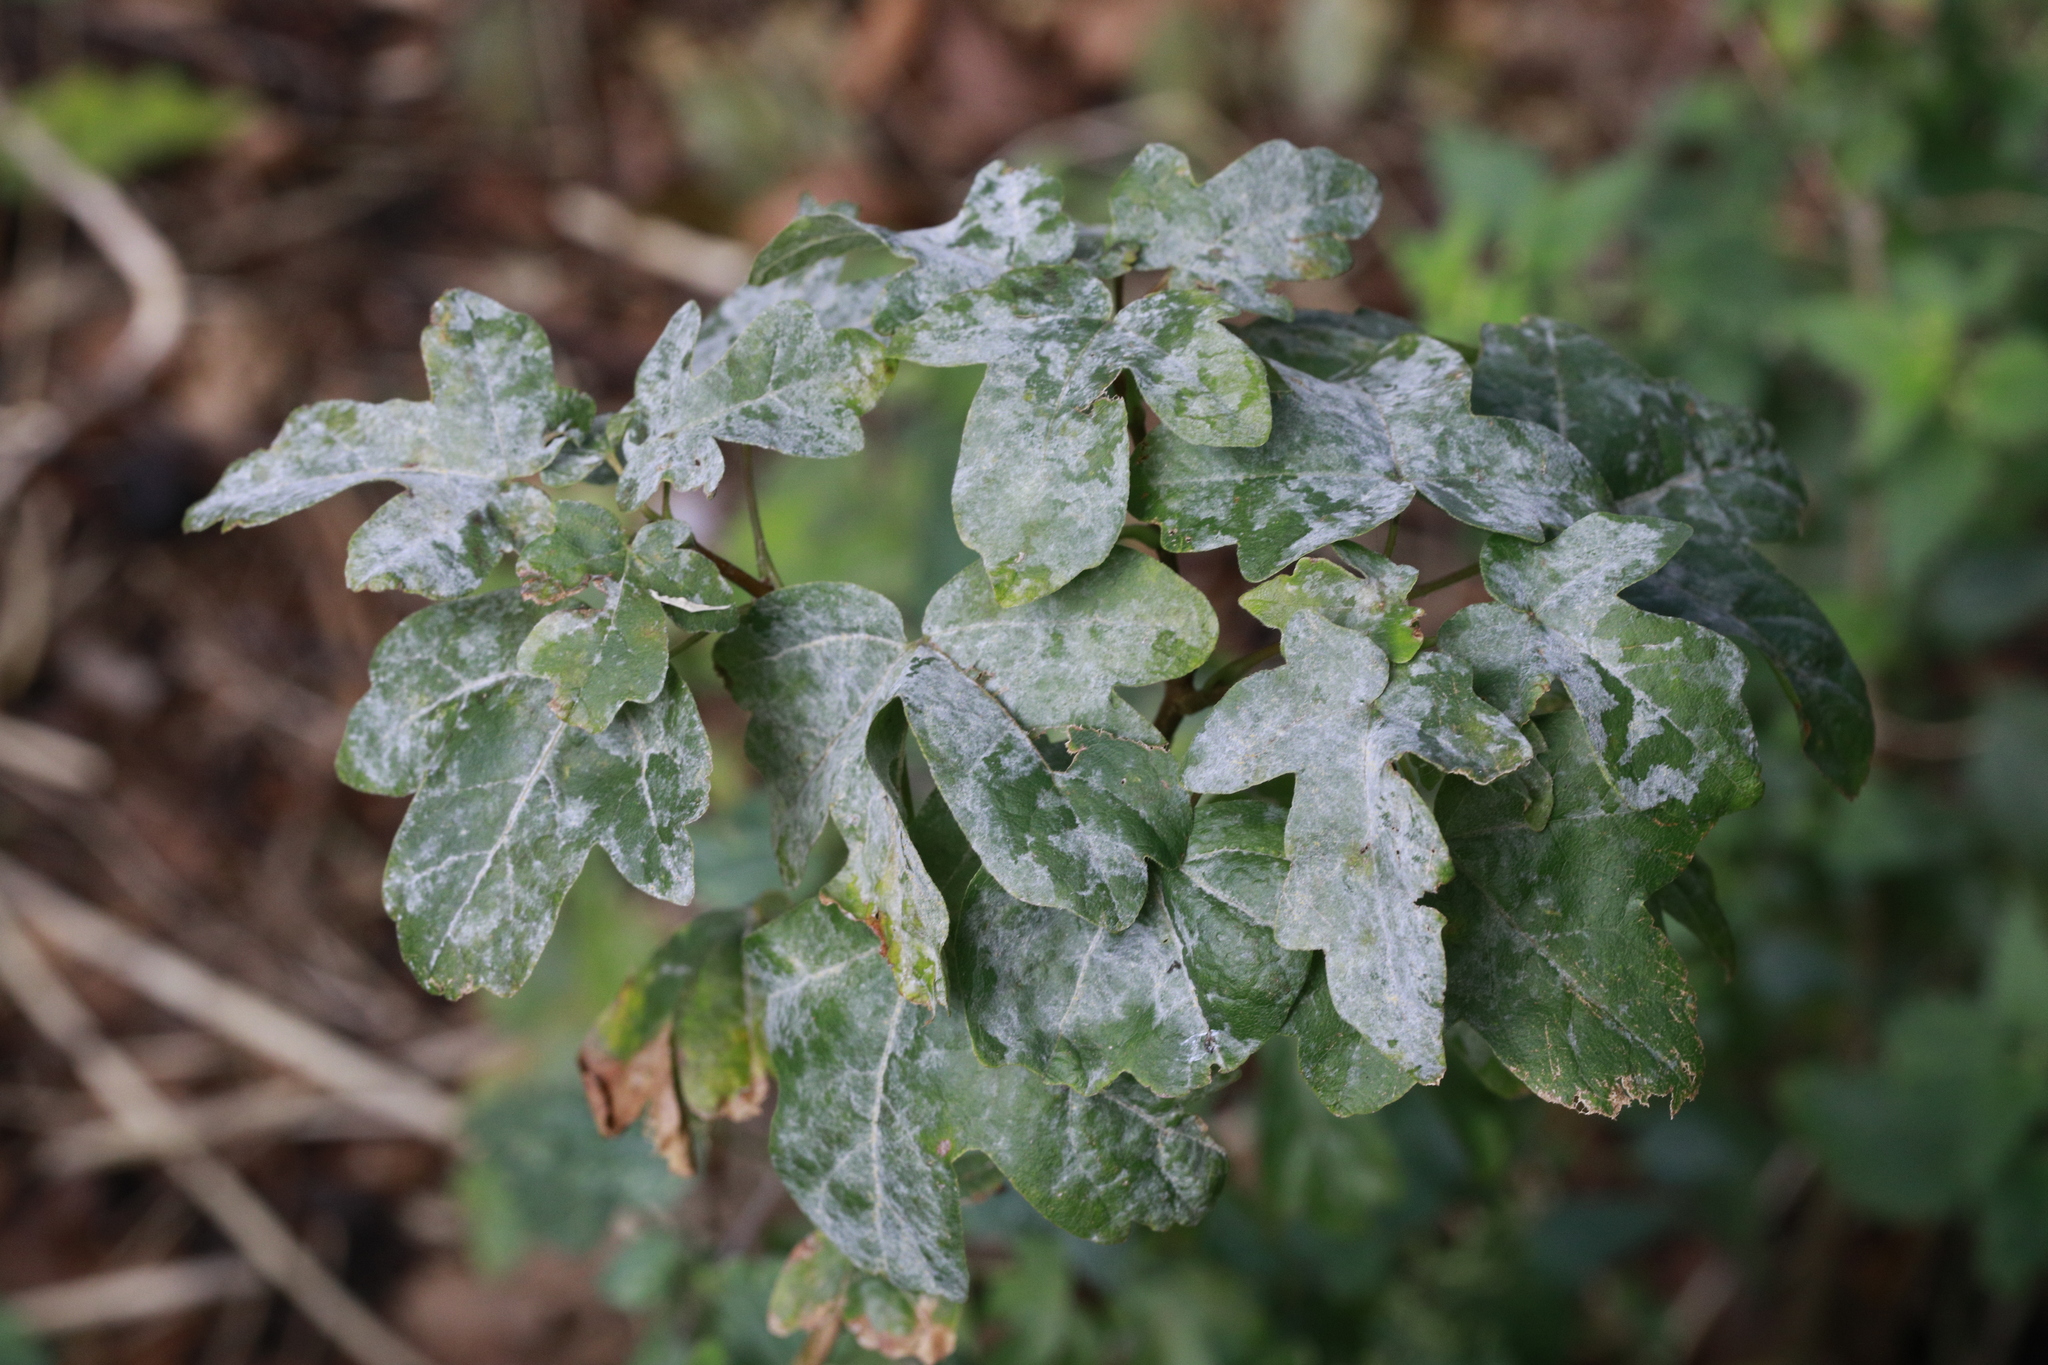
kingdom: Fungi
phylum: Ascomycota
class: Leotiomycetes
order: Helotiales
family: Erysiphaceae
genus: Sawadaea
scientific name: Sawadaea bicornis
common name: Maple mildew
